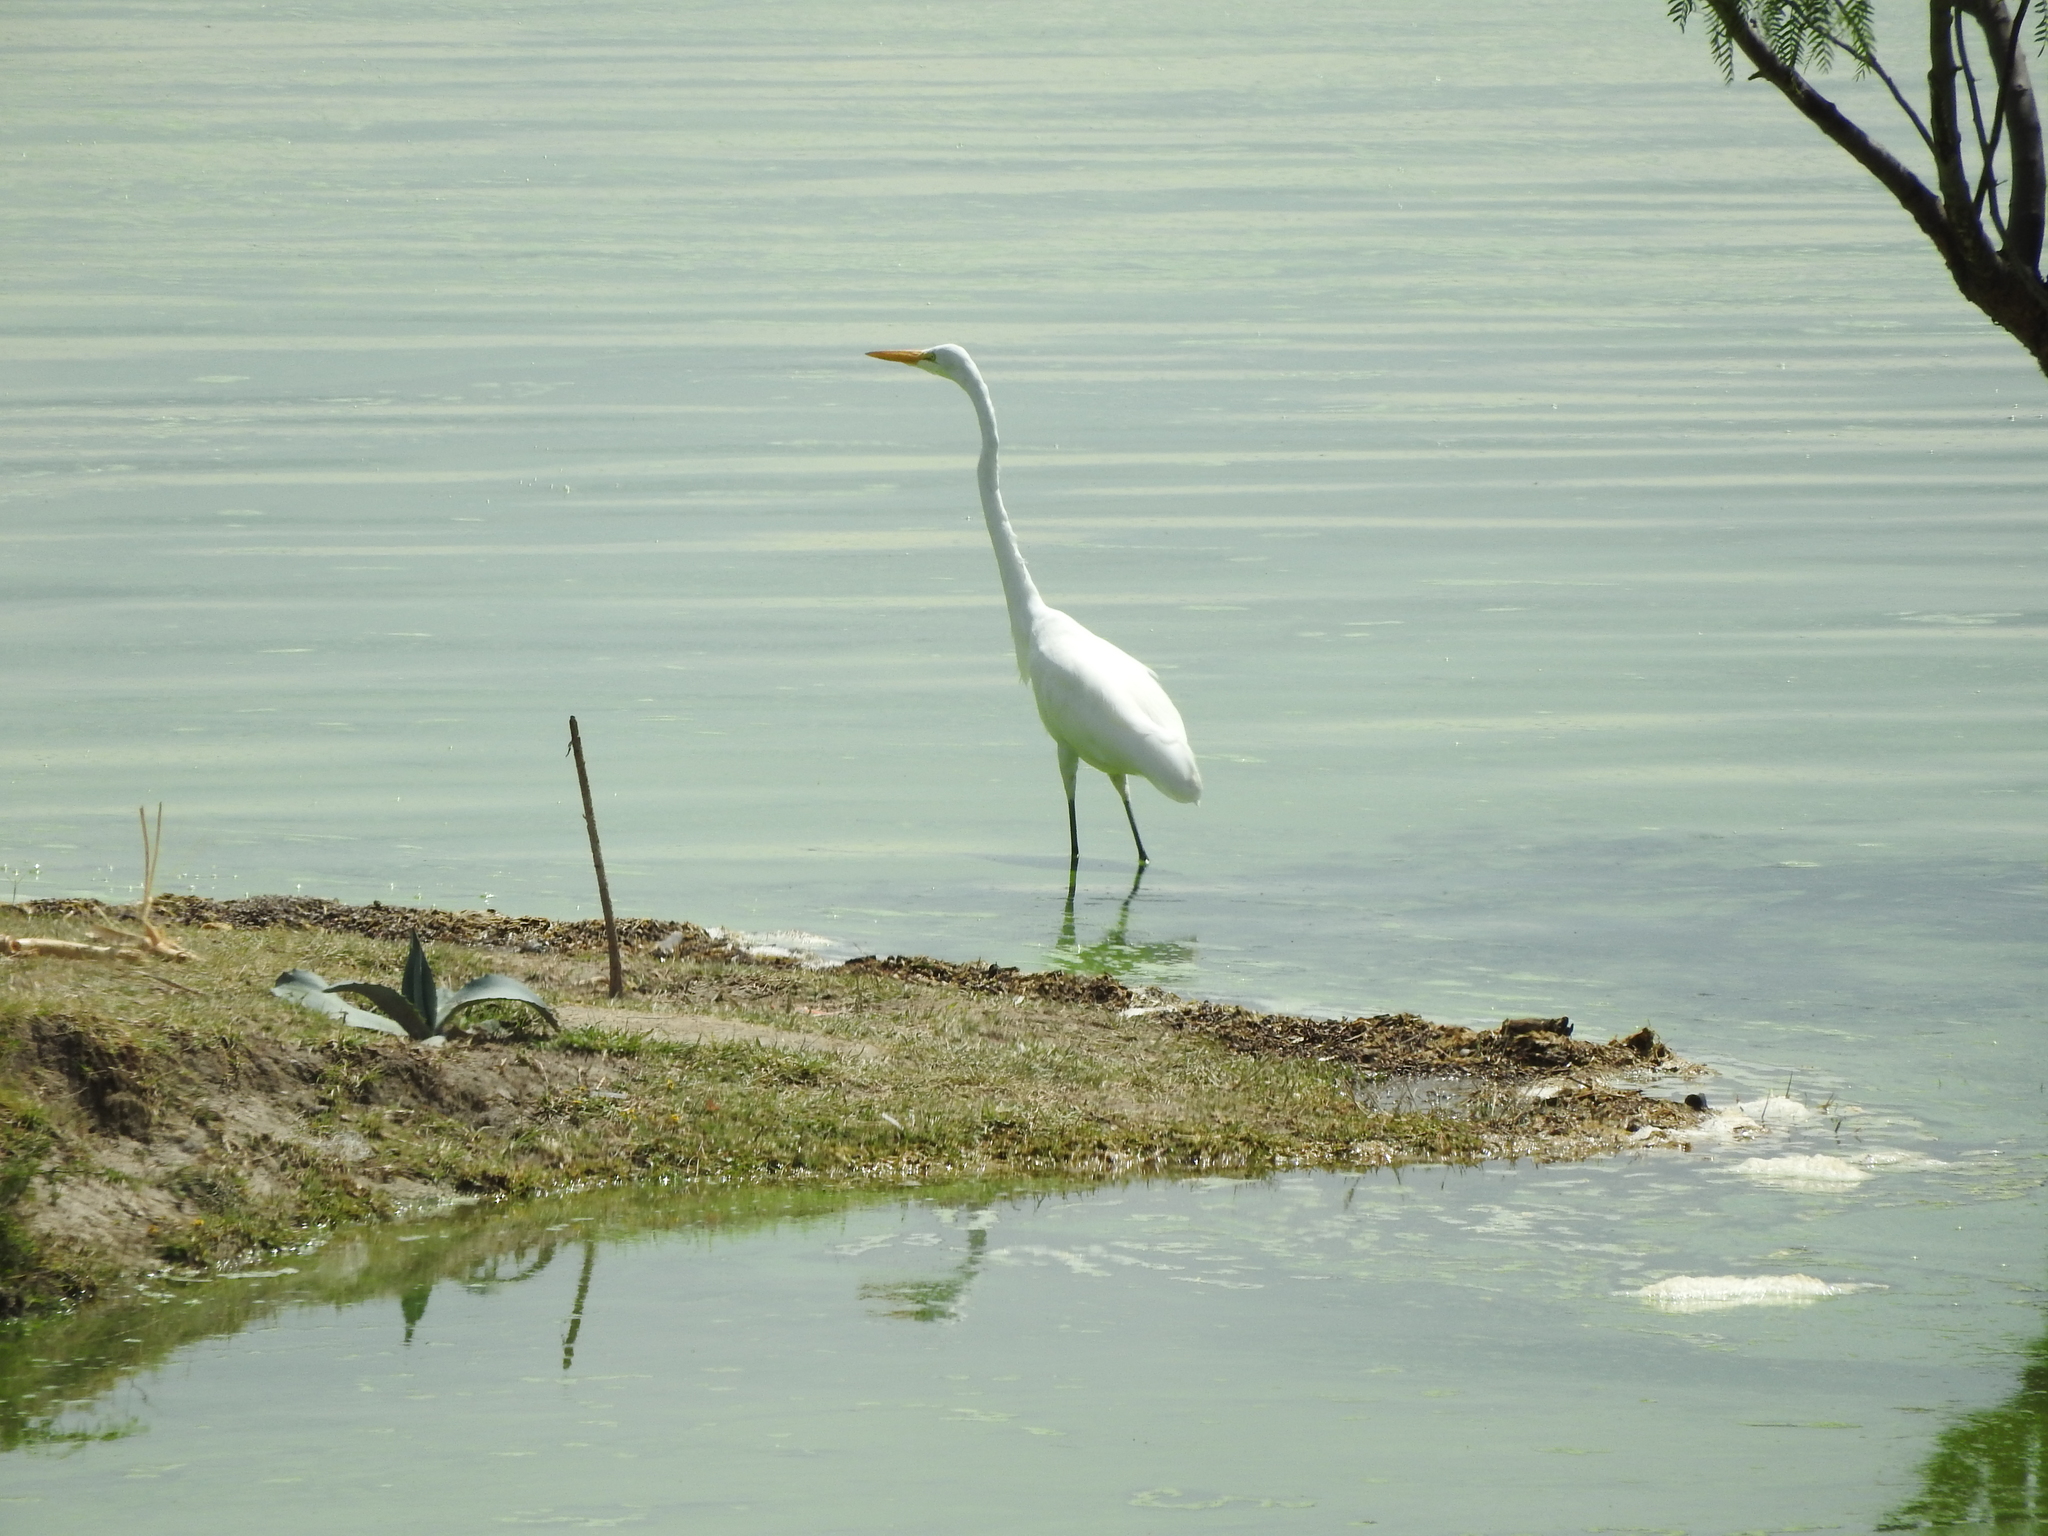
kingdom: Animalia
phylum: Chordata
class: Aves
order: Pelecaniformes
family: Ardeidae
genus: Ardea
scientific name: Ardea alba
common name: Great egret
